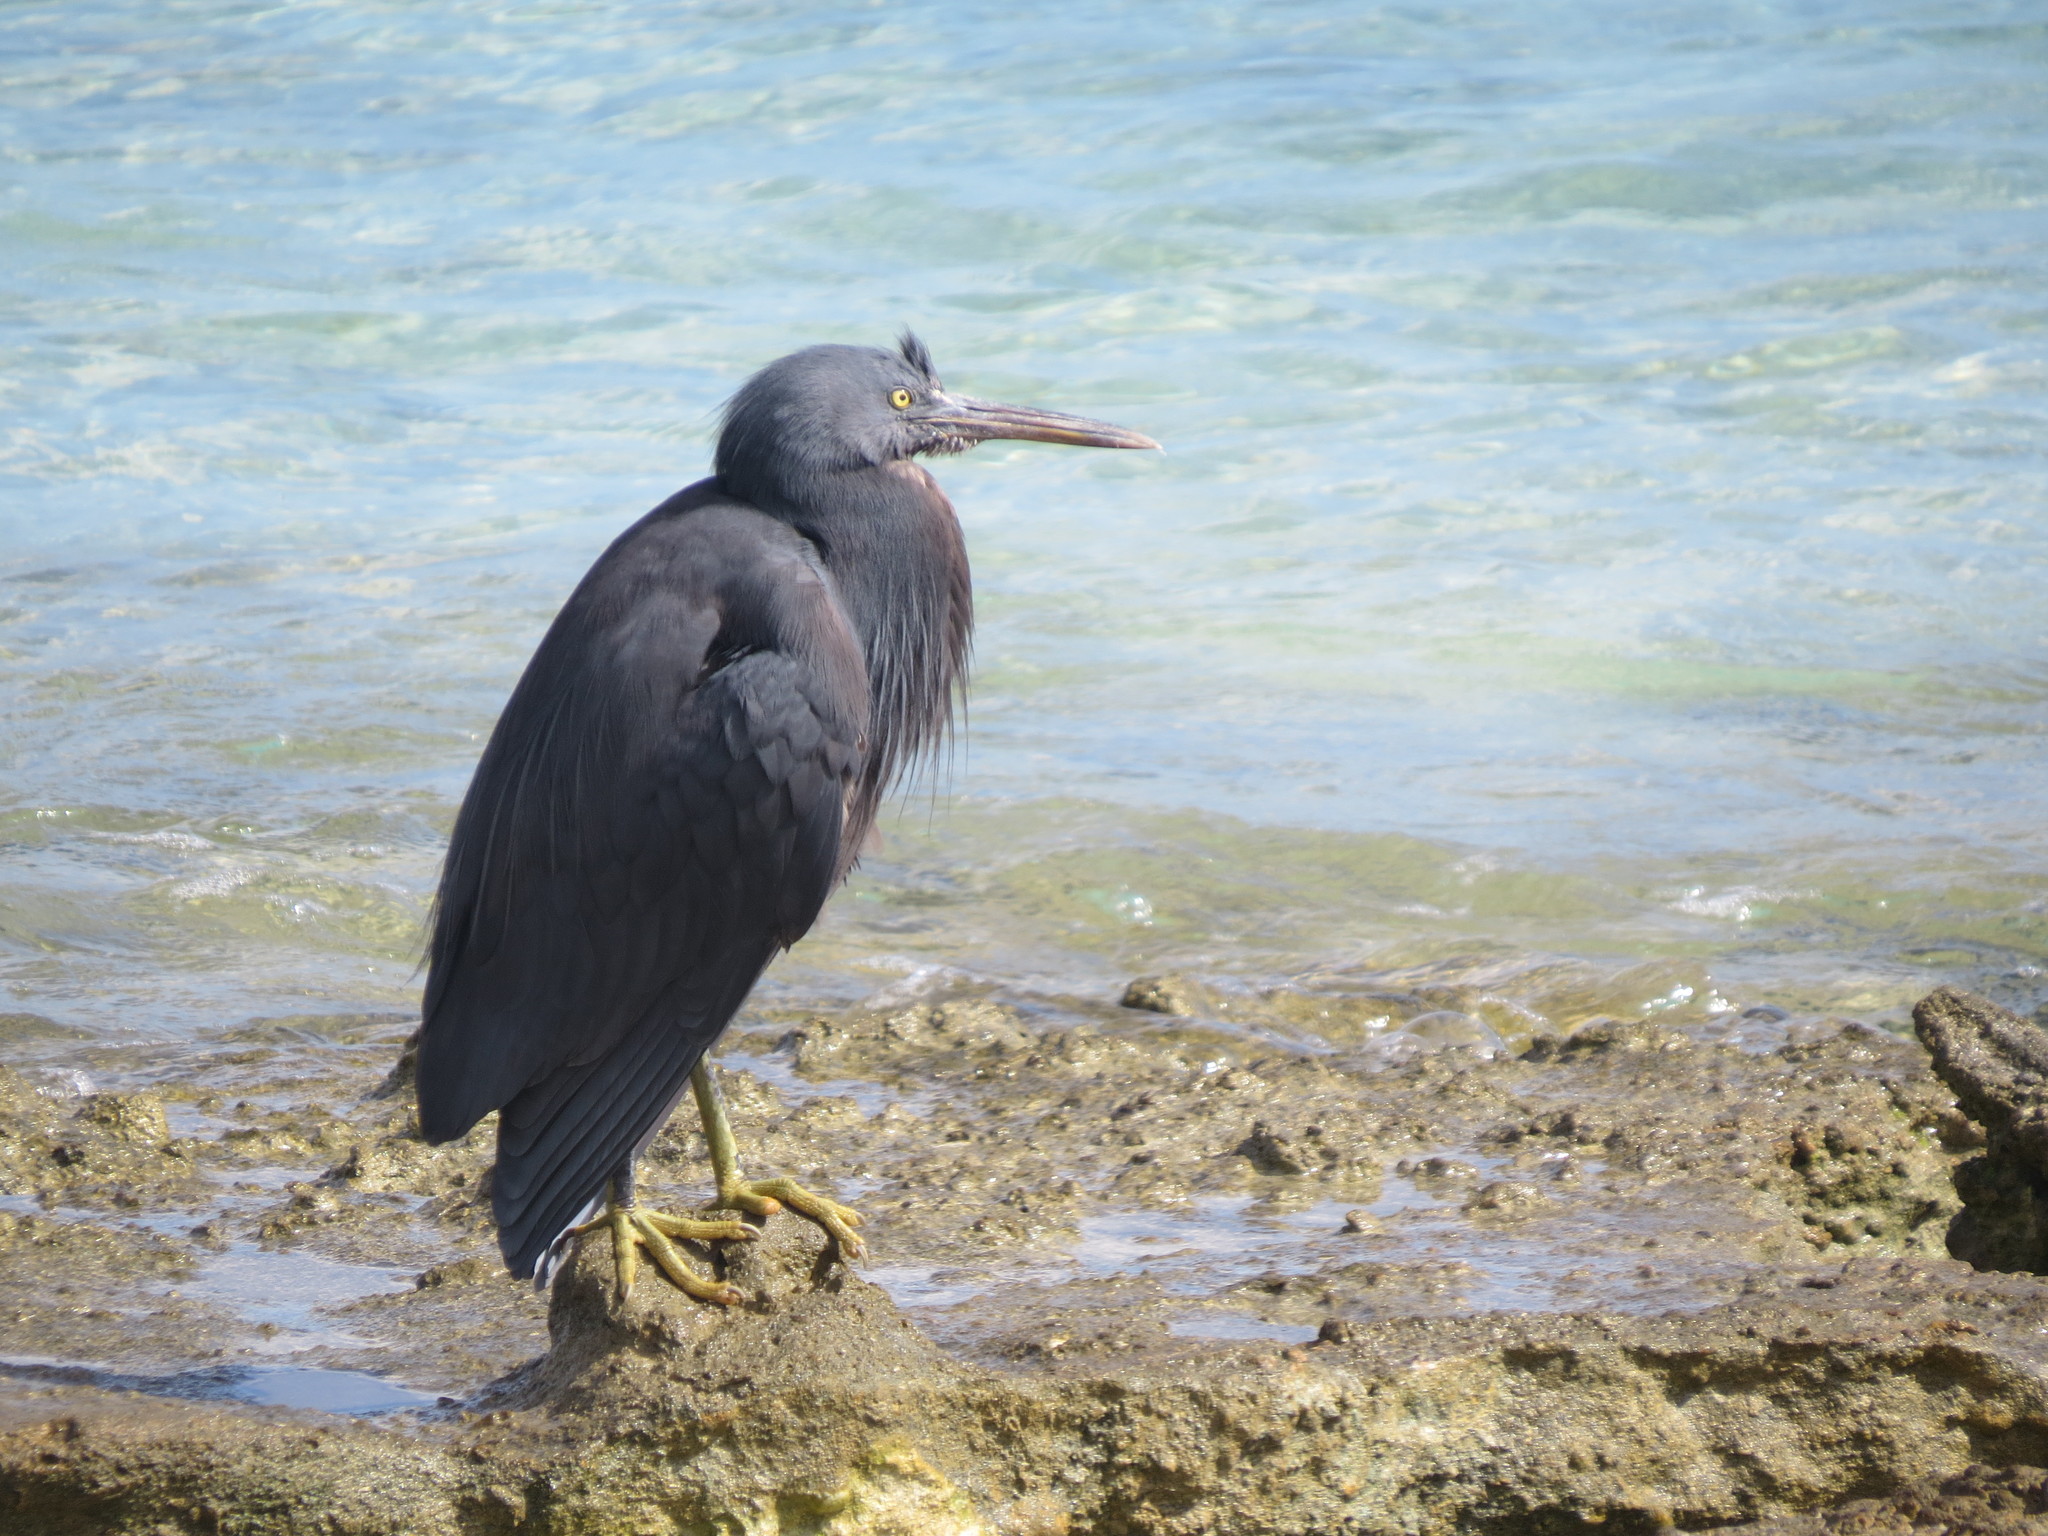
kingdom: Animalia
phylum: Chordata
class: Aves
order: Pelecaniformes
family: Ardeidae
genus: Egretta
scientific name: Egretta sacra
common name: Pacific reef heron
